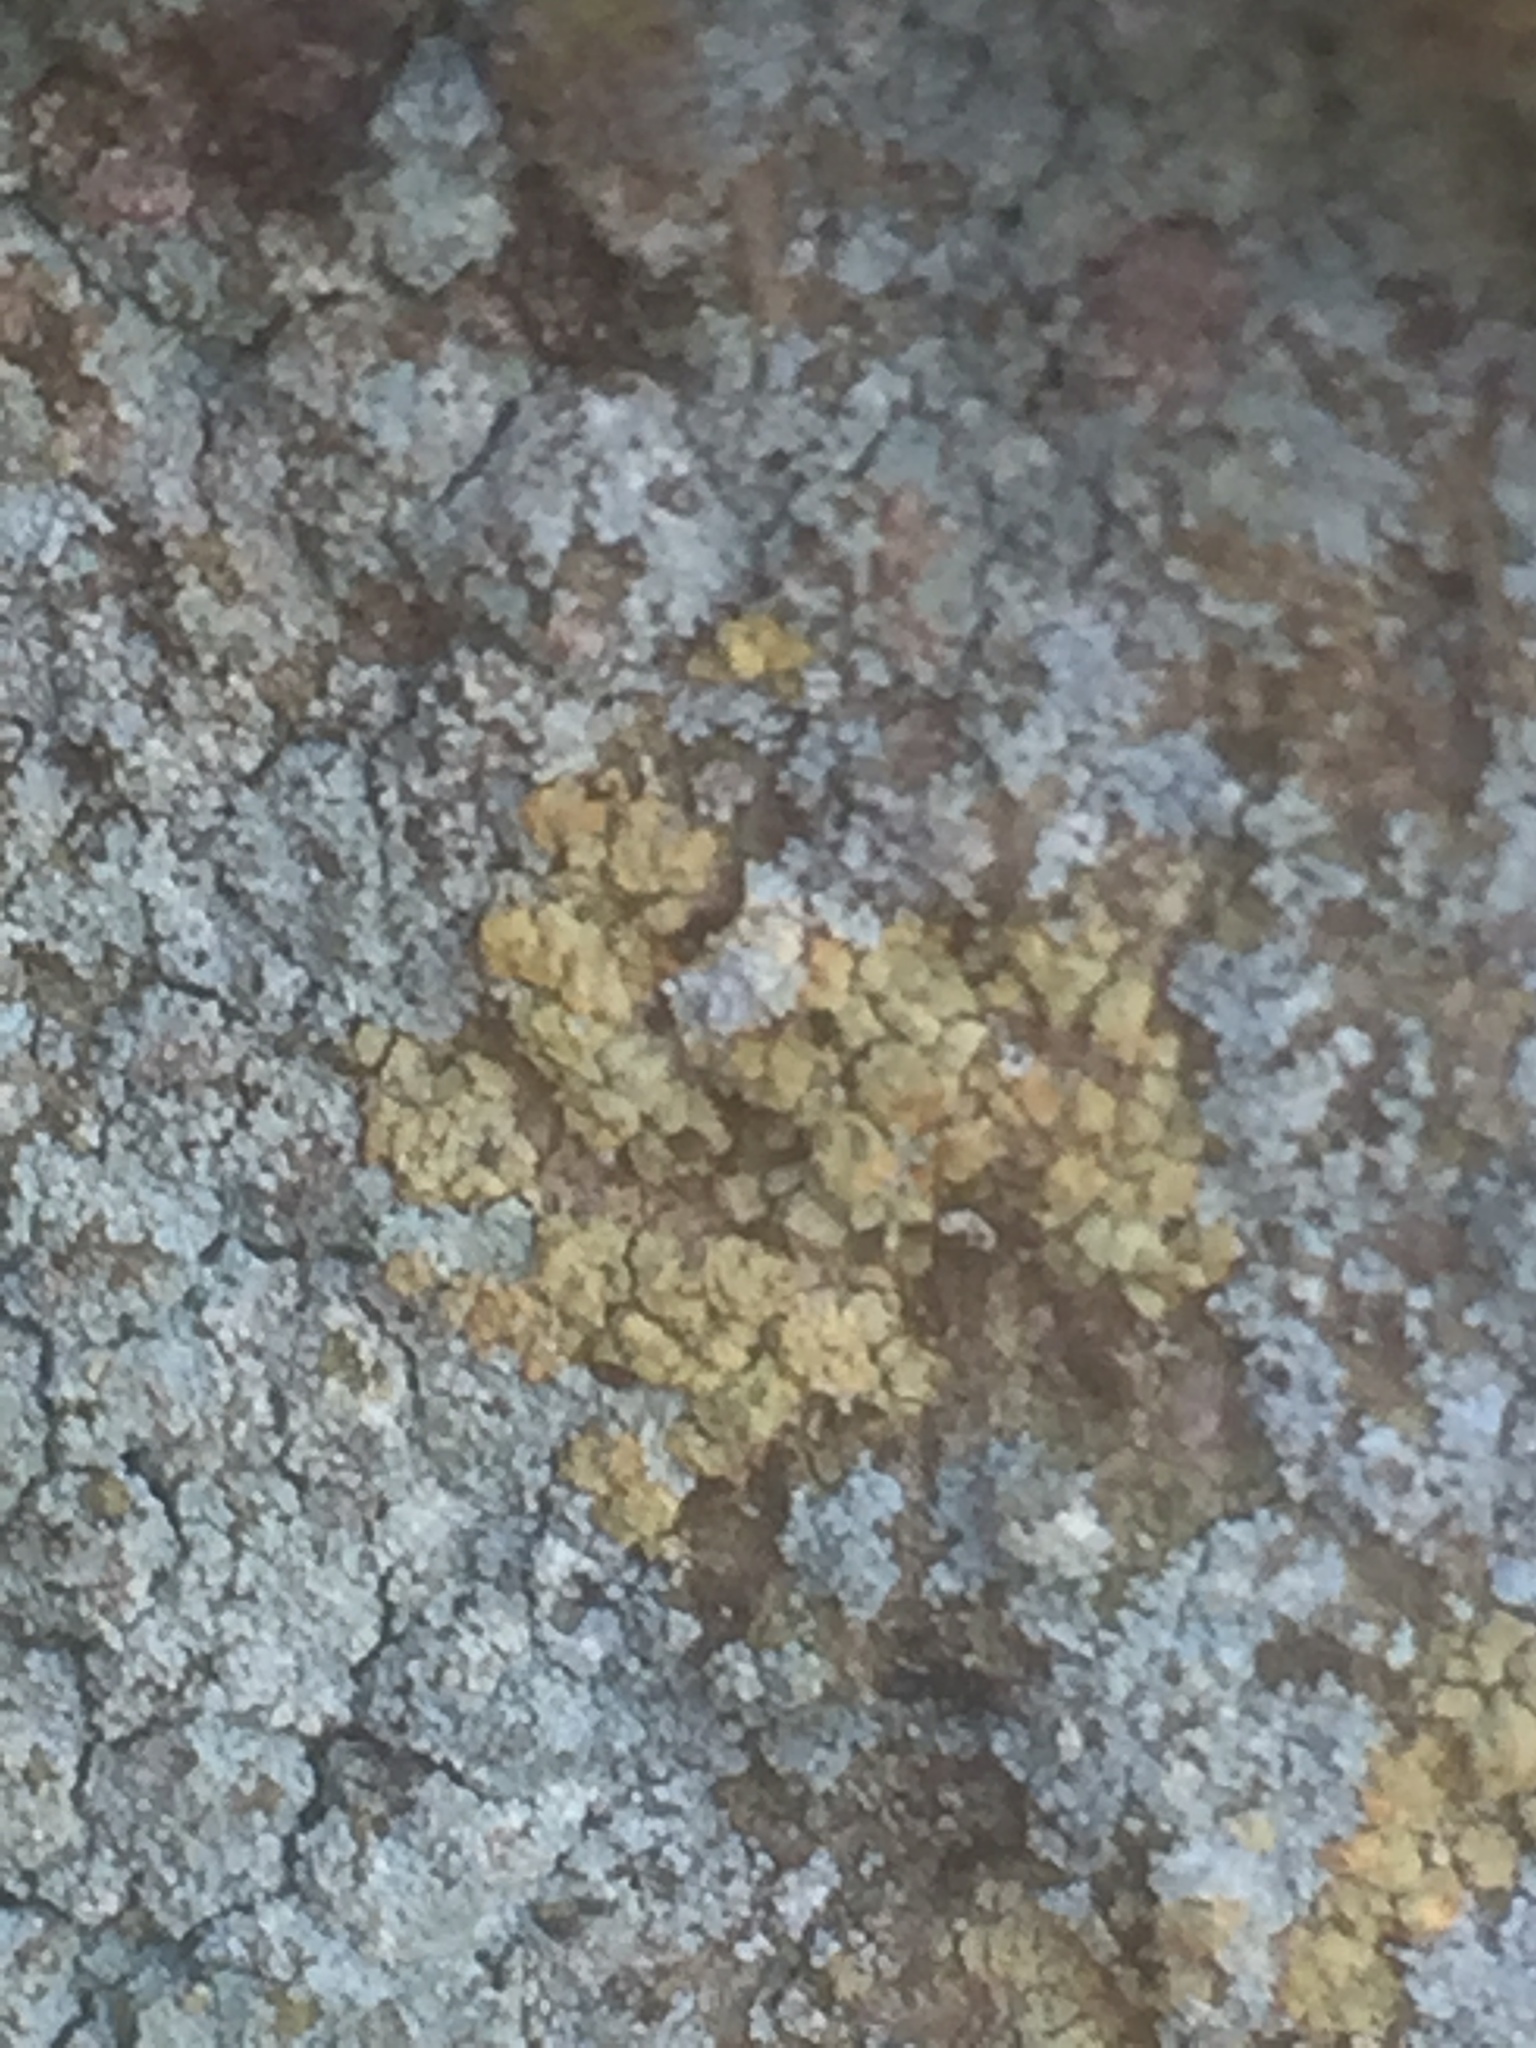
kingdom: Fungi
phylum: Ascomycota
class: Coniocybomycetes
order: Coniocybales
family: Coniocybaceae
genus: Chaenotheca
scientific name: Chaenotheca ferruginea
